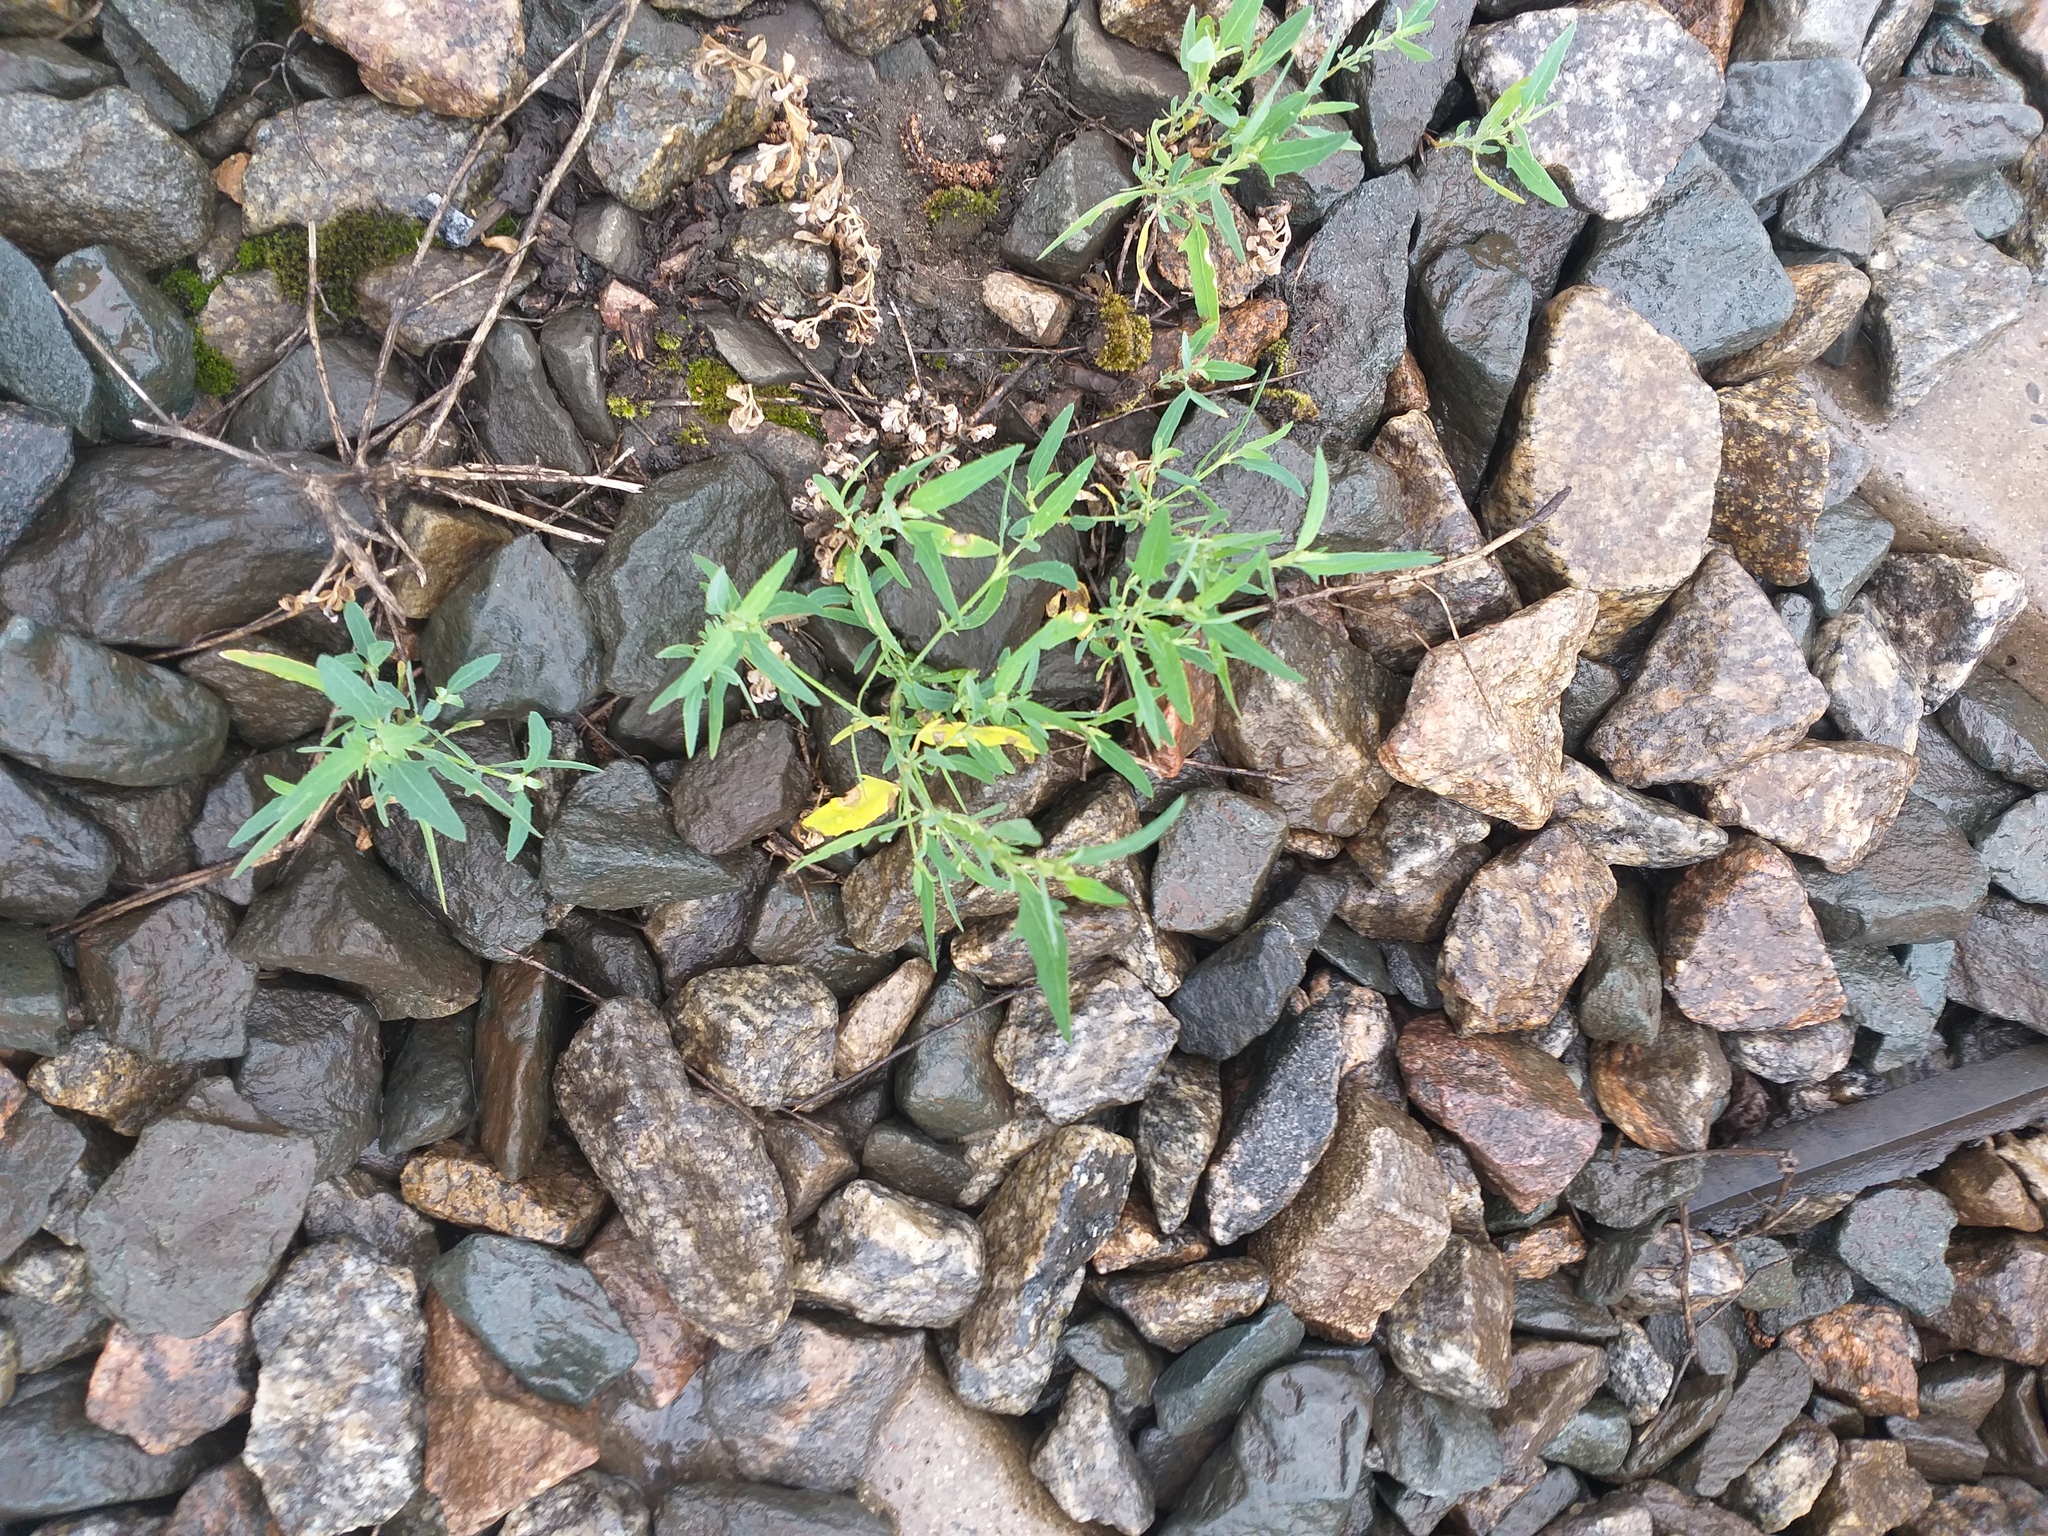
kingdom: Plantae
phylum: Tracheophyta
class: Magnoliopsida
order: Caryophyllales
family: Amaranthaceae
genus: Atriplex
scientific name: Atriplex patula
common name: Common orache
